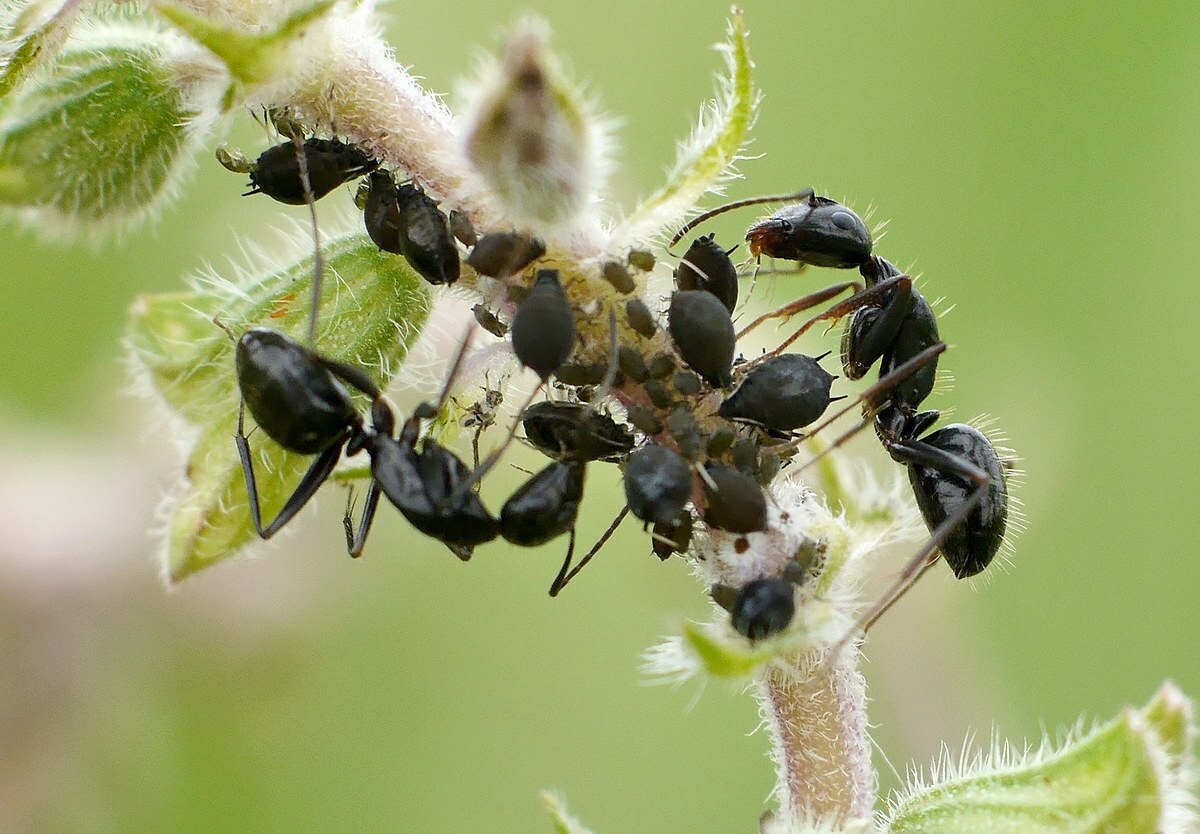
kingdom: Animalia
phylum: Arthropoda
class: Insecta
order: Hymenoptera
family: Formicidae
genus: Camponotus
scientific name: Camponotus aethiops
